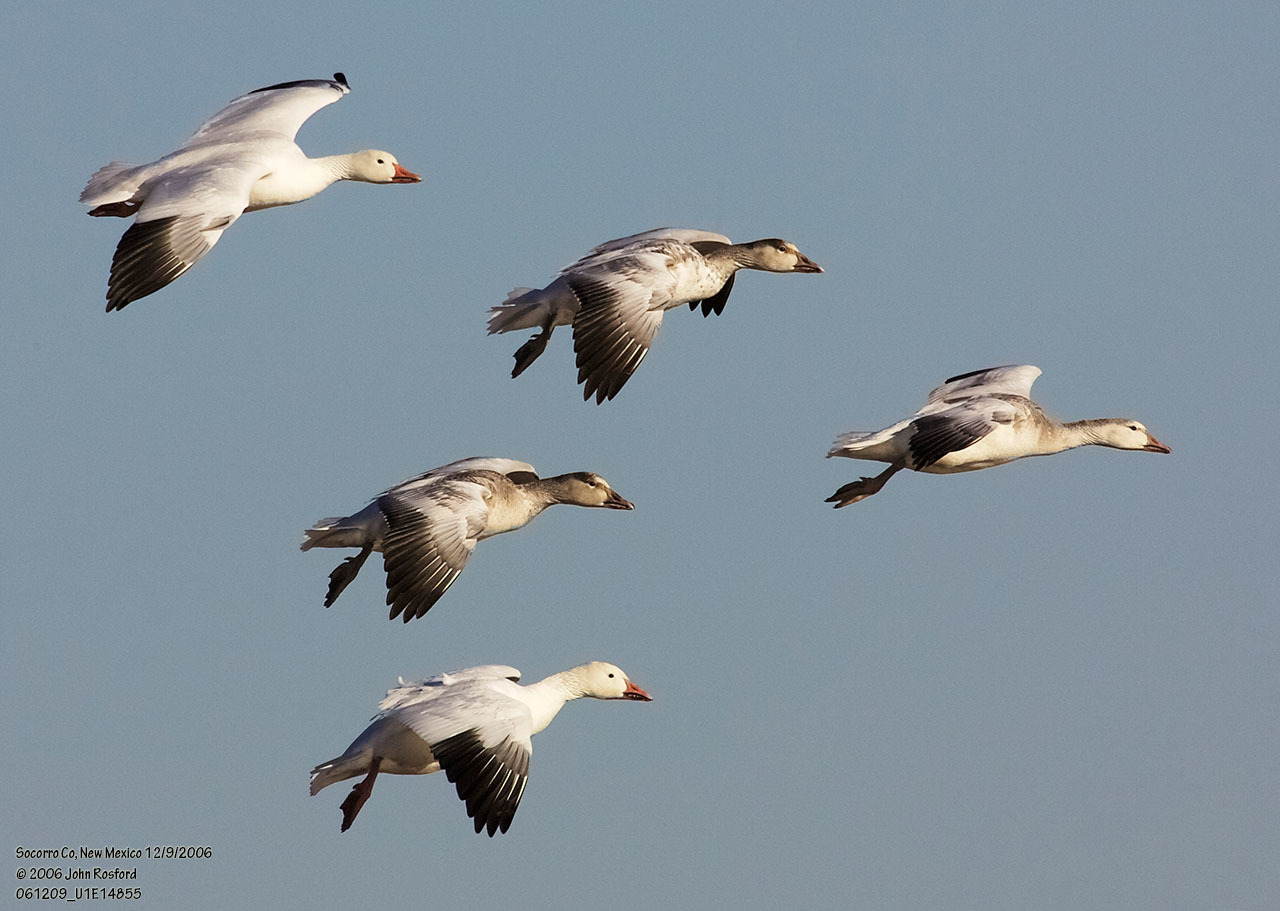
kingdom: Animalia
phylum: Chordata
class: Aves
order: Anseriformes
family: Anatidae
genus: Anser
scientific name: Anser caerulescens
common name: Snow goose
